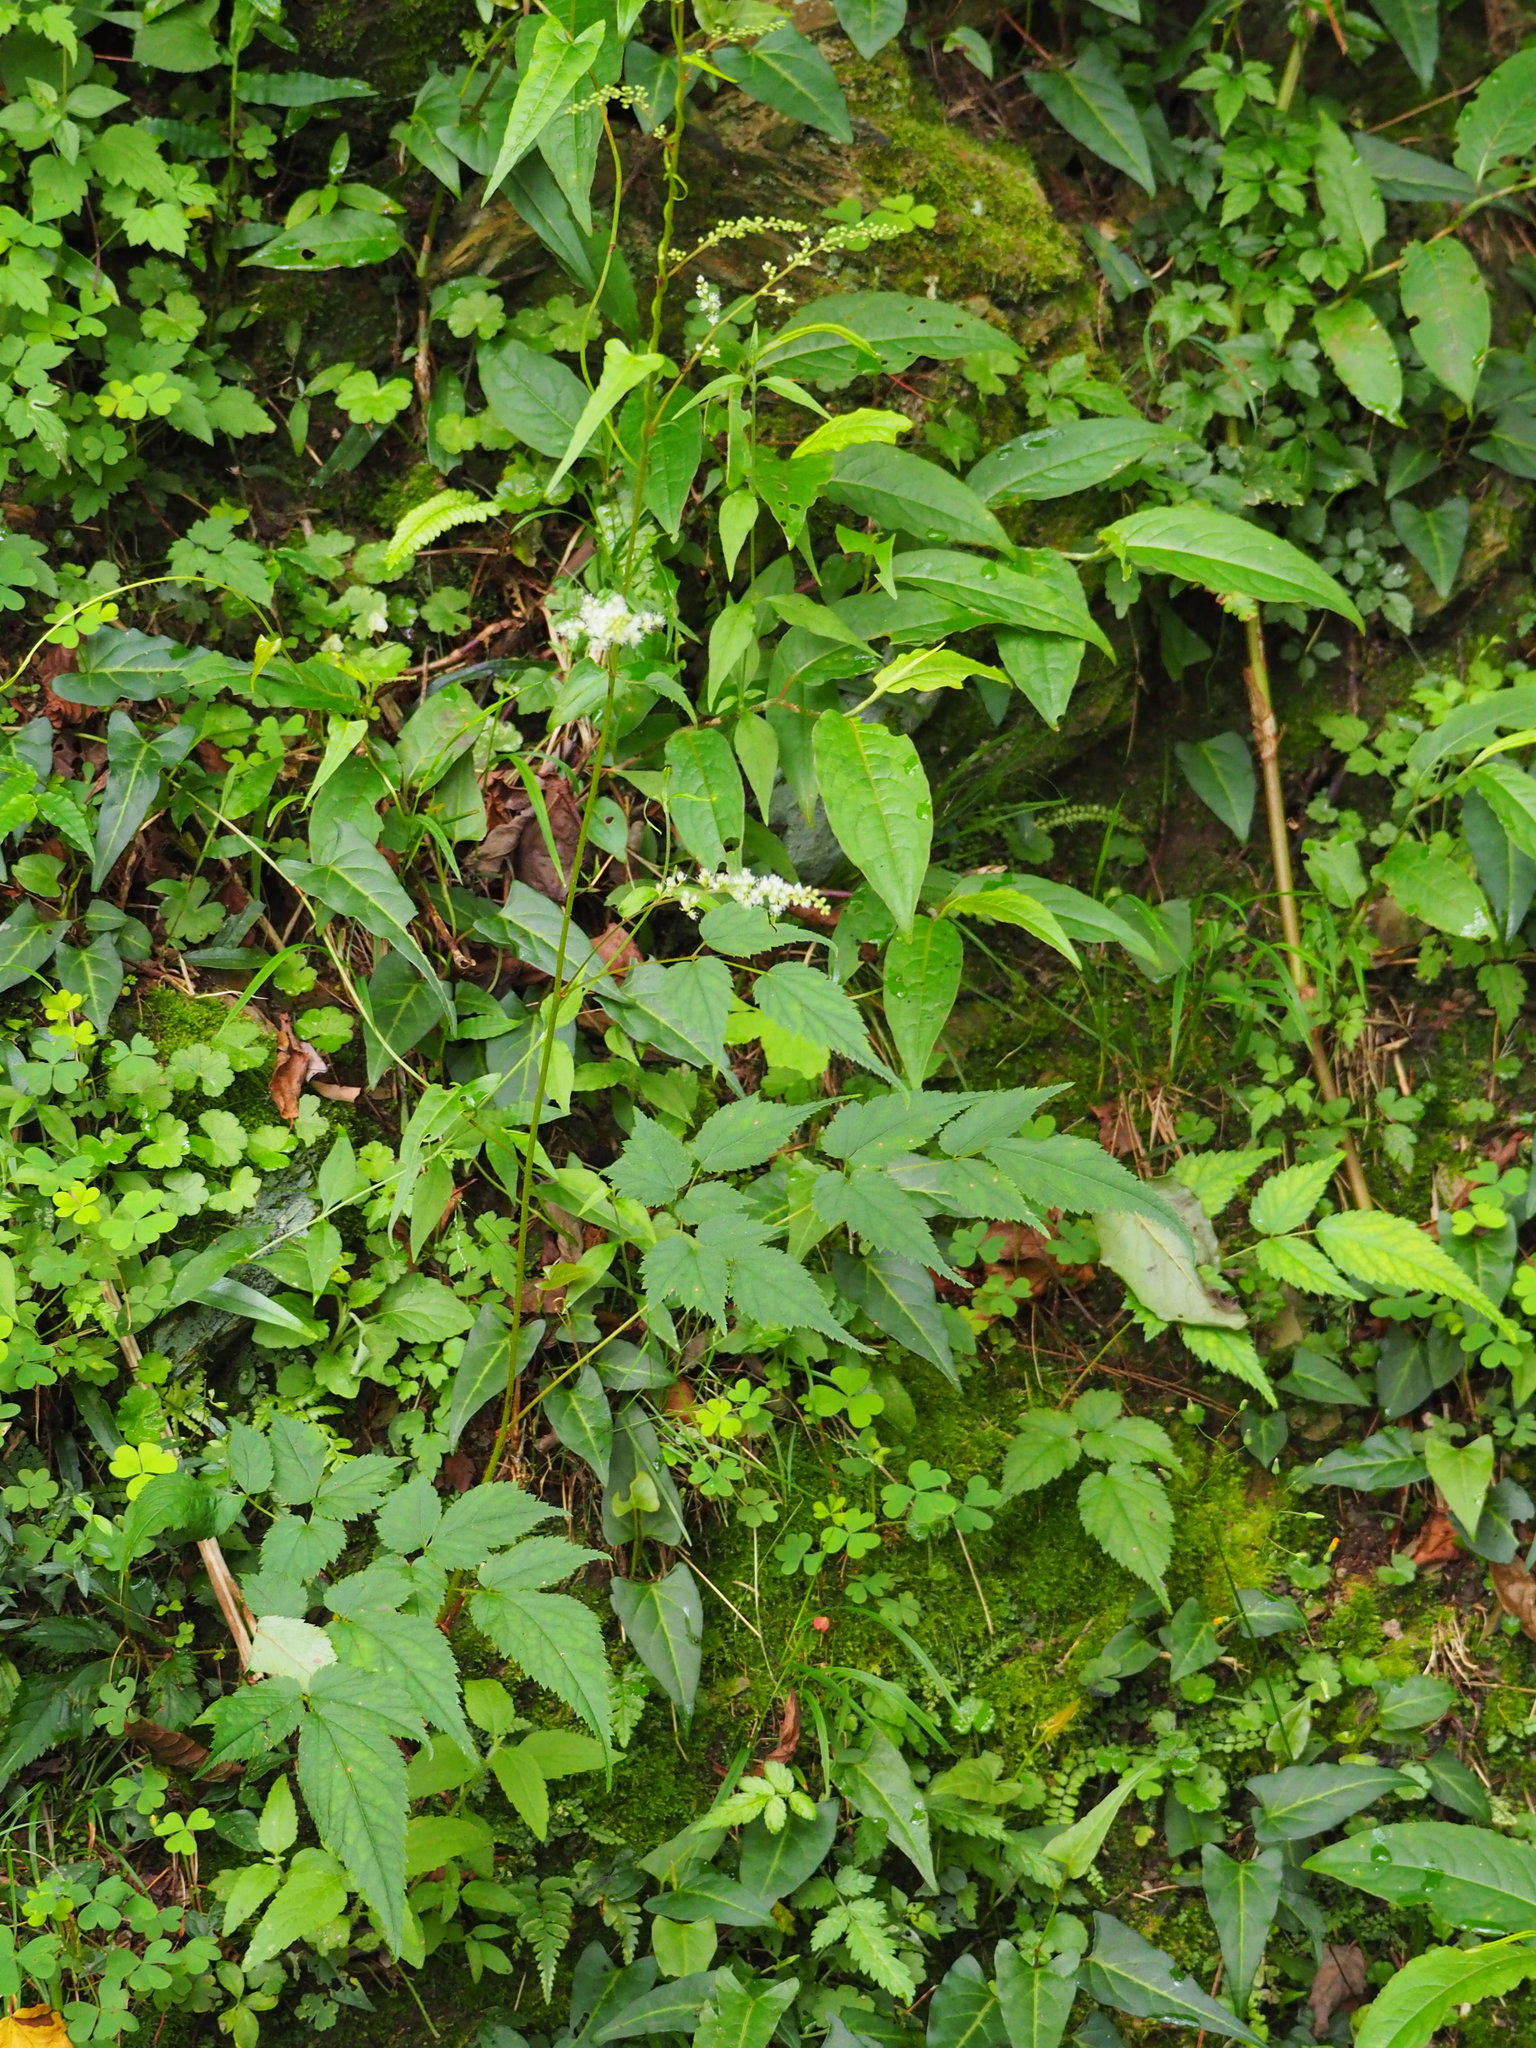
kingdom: Plantae
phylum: Tracheophyta
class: Magnoliopsida
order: Saxifragales
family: Saxifragaceae
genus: Astilbe
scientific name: Astilbe longicarpa
